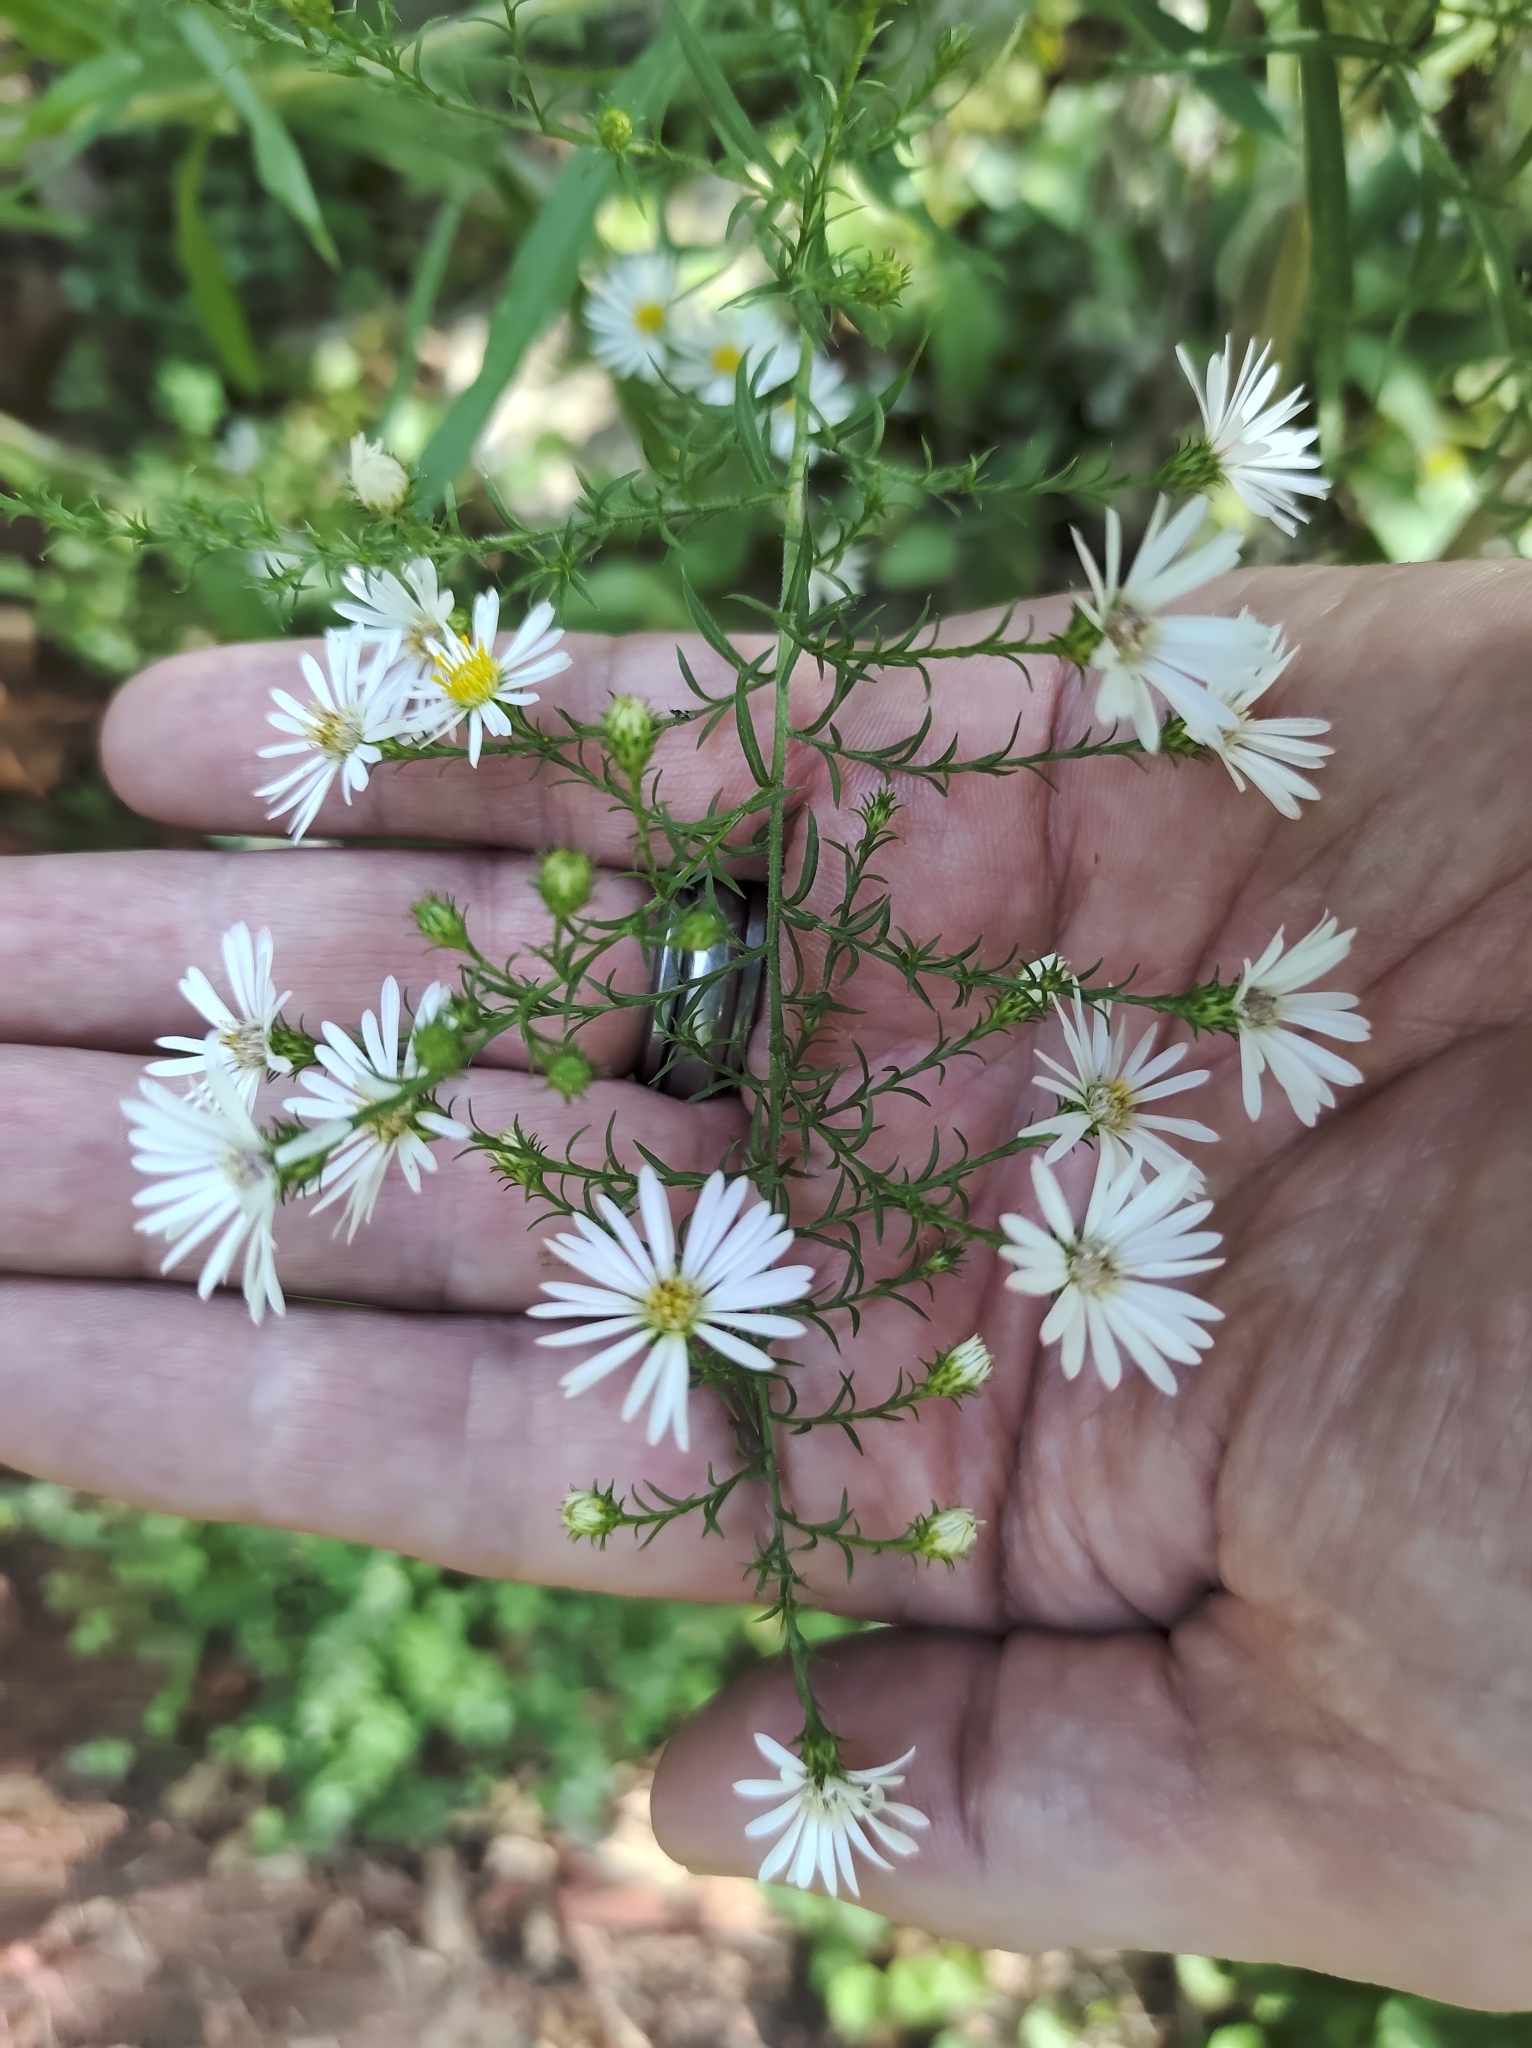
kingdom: Plantae
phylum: Tracheophyta
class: Magnoliopsida
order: Asterales
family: Asteraceae
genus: Symphyotrichum
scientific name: Symphyotrichum pilosum
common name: Awl aster
